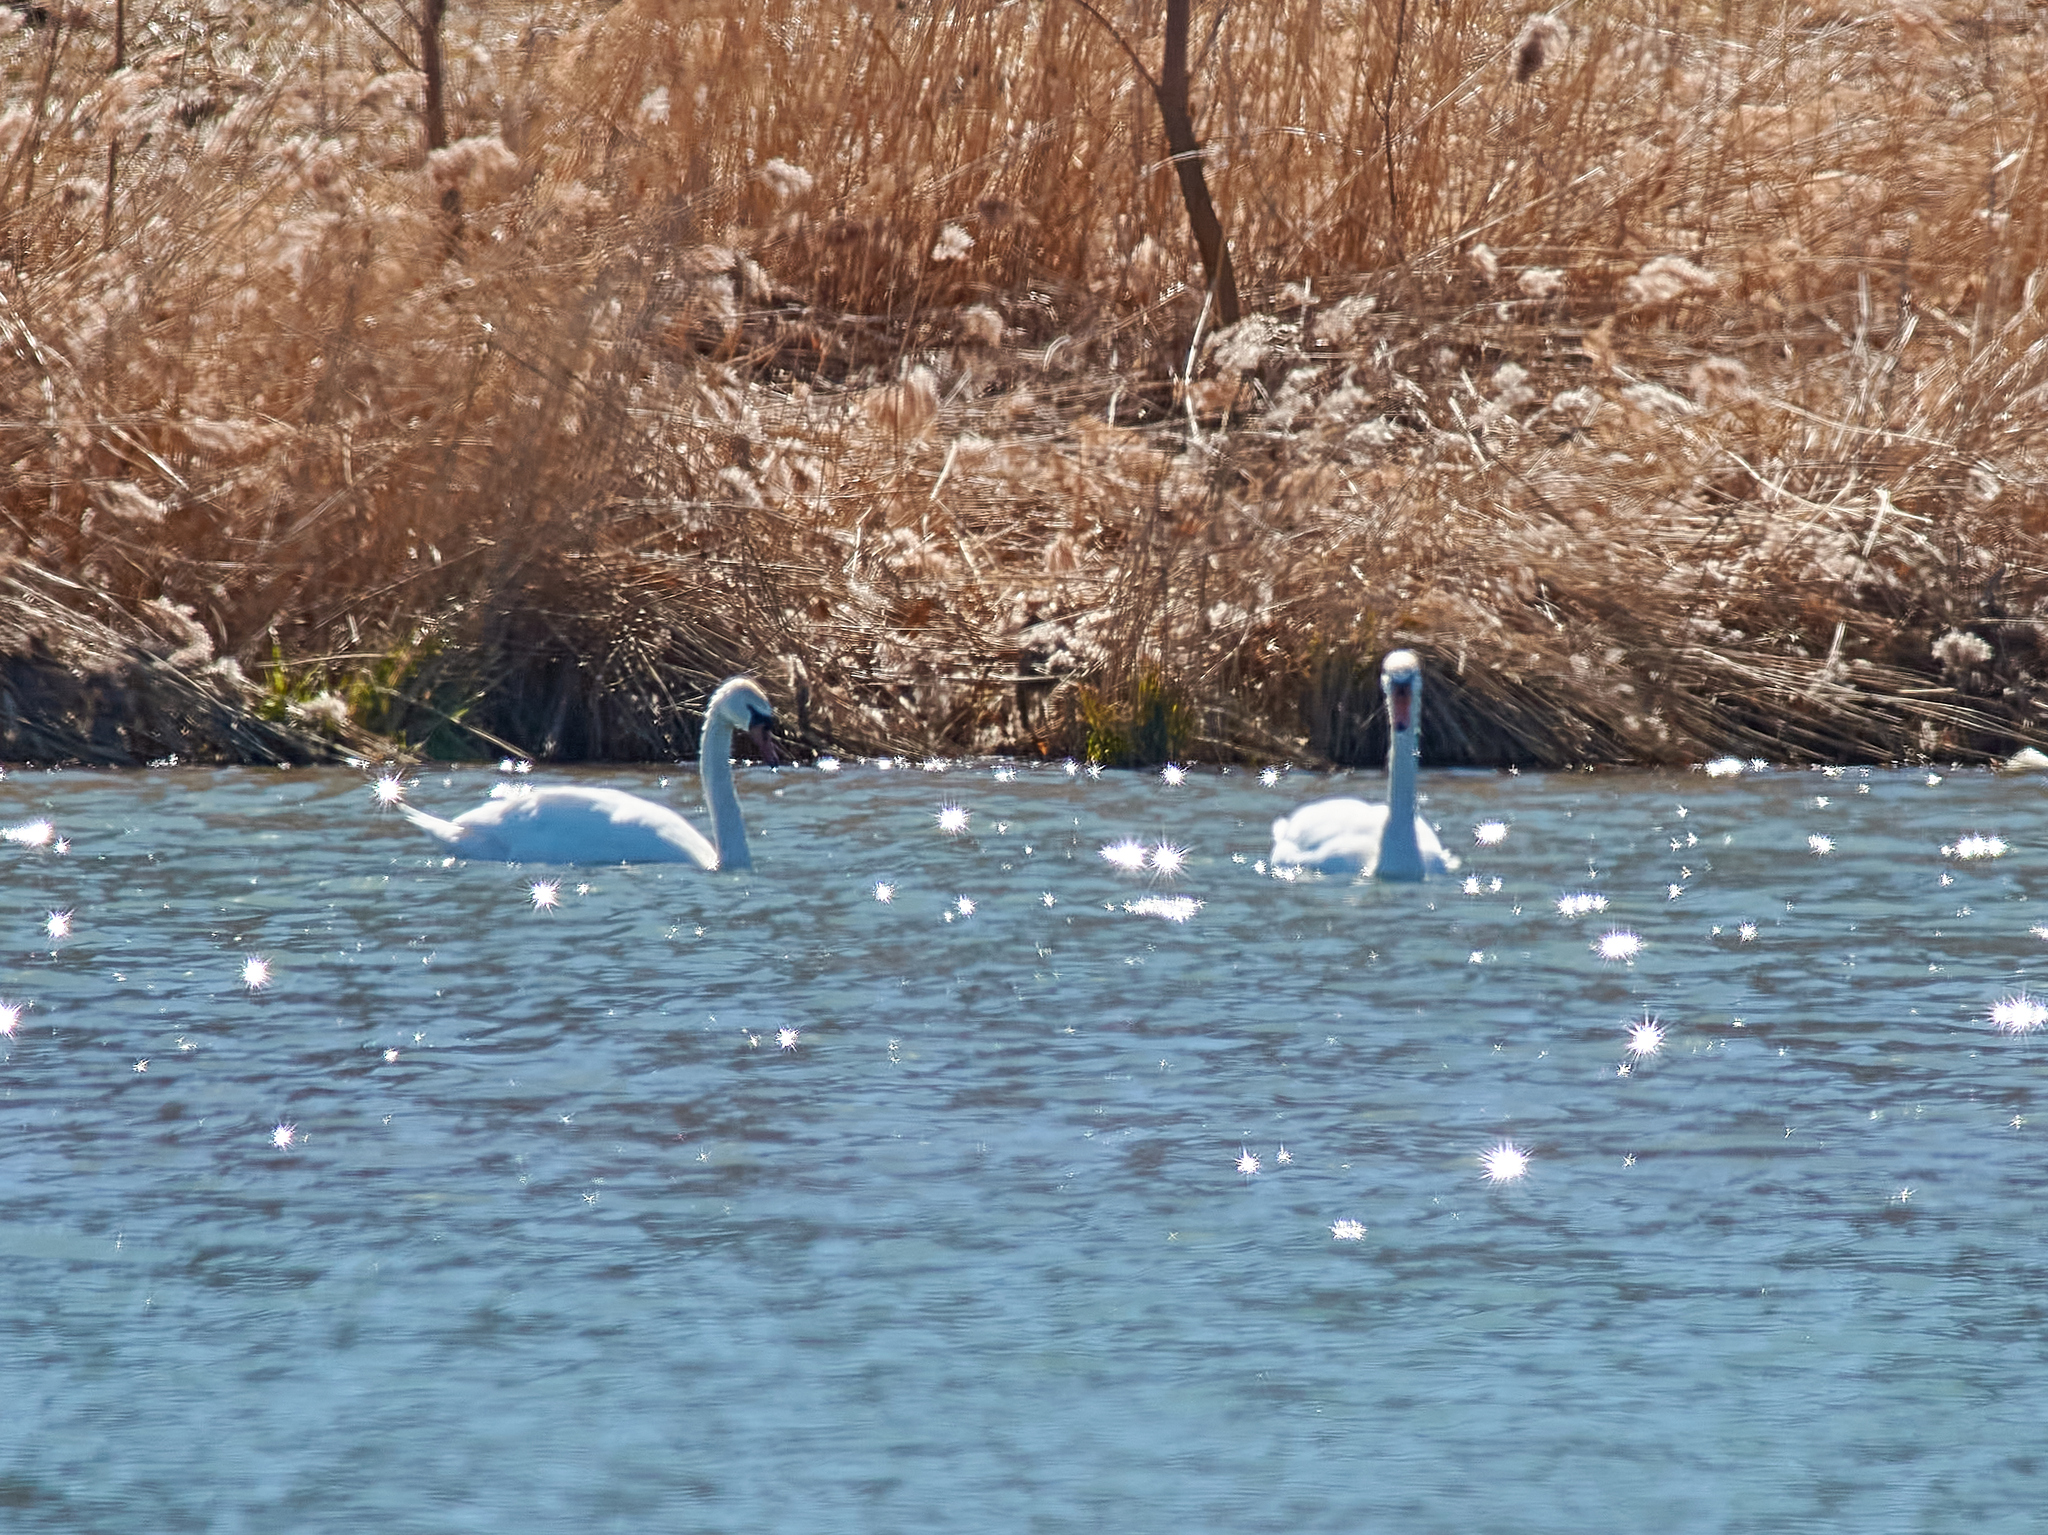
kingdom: Animalia
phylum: Chordata
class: Aves
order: Anseriformes
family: Anatidae
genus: Cygnus
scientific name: Cygnus olor
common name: Mute swan
